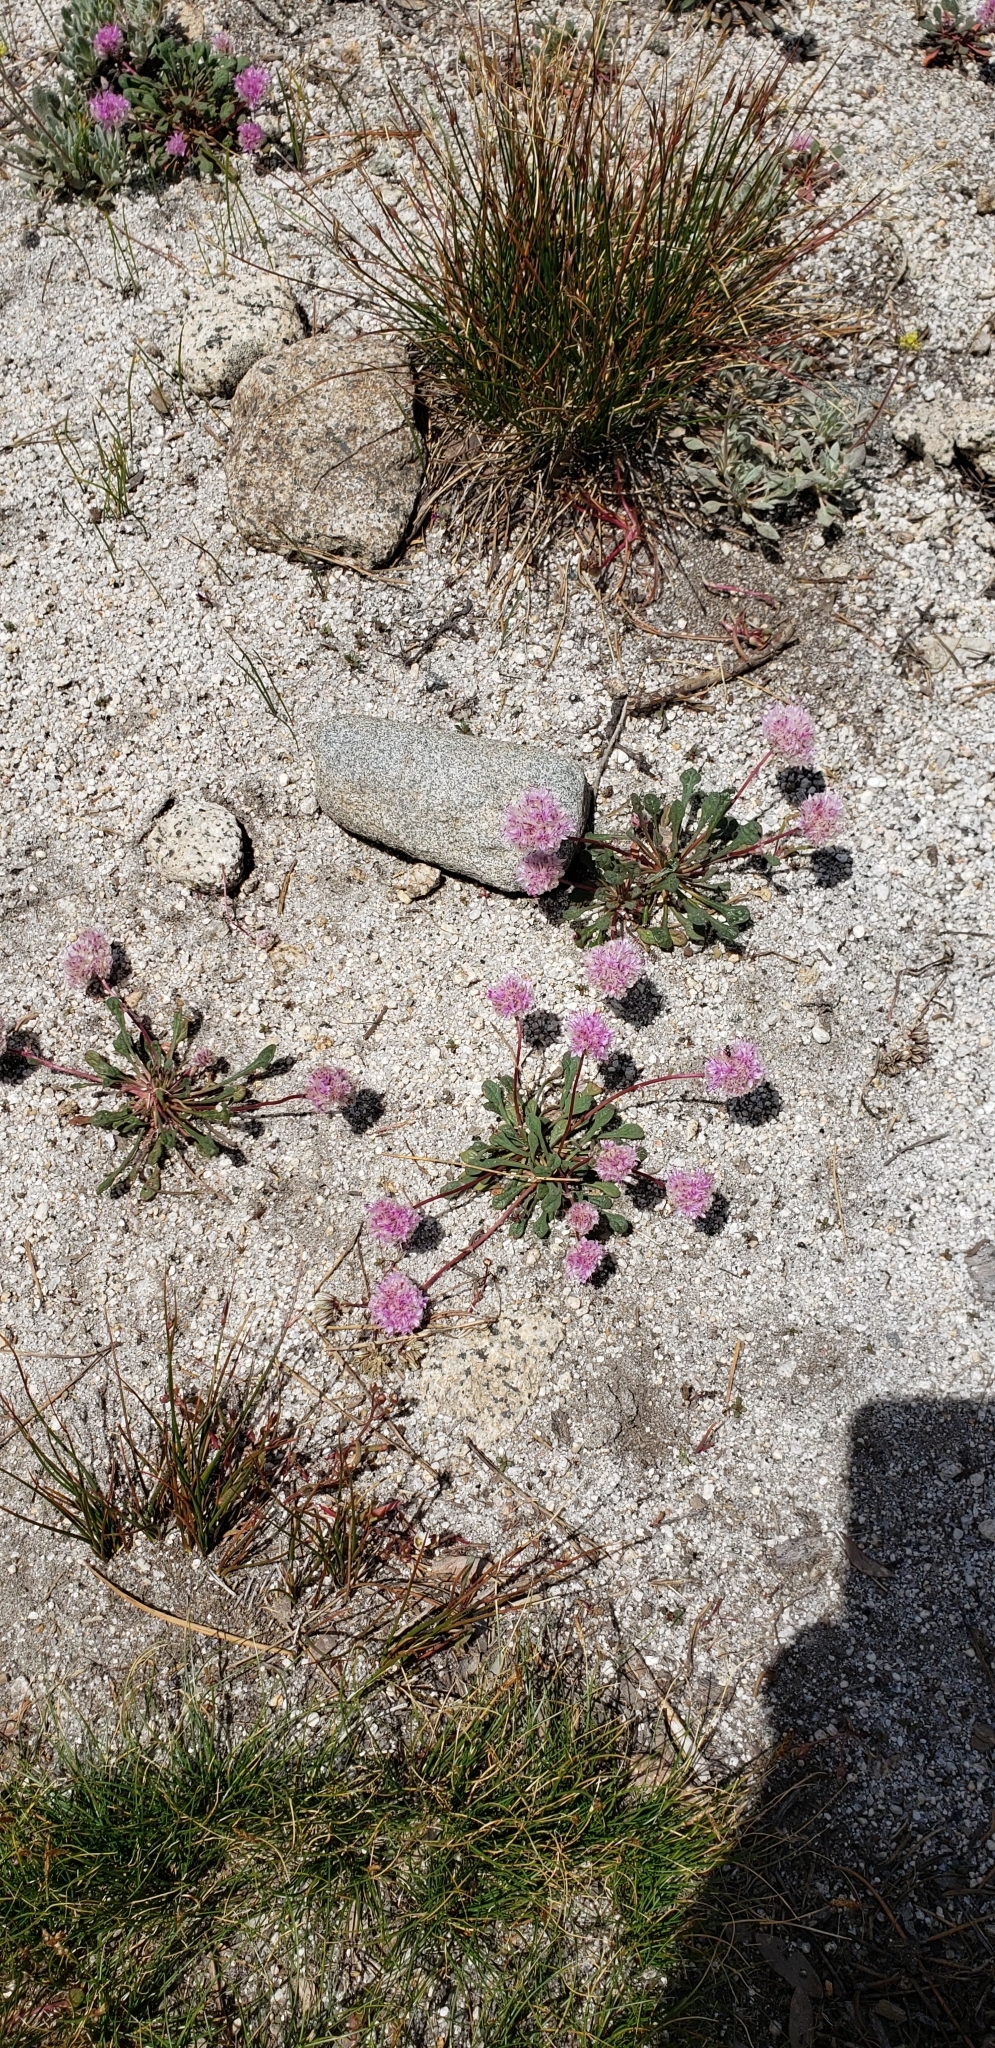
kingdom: Plantae
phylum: Tracheophyta
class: Magnoliopsida
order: Caryophyllales
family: Montiaceae
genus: Calyptridium
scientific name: Calyptridium monospermum
